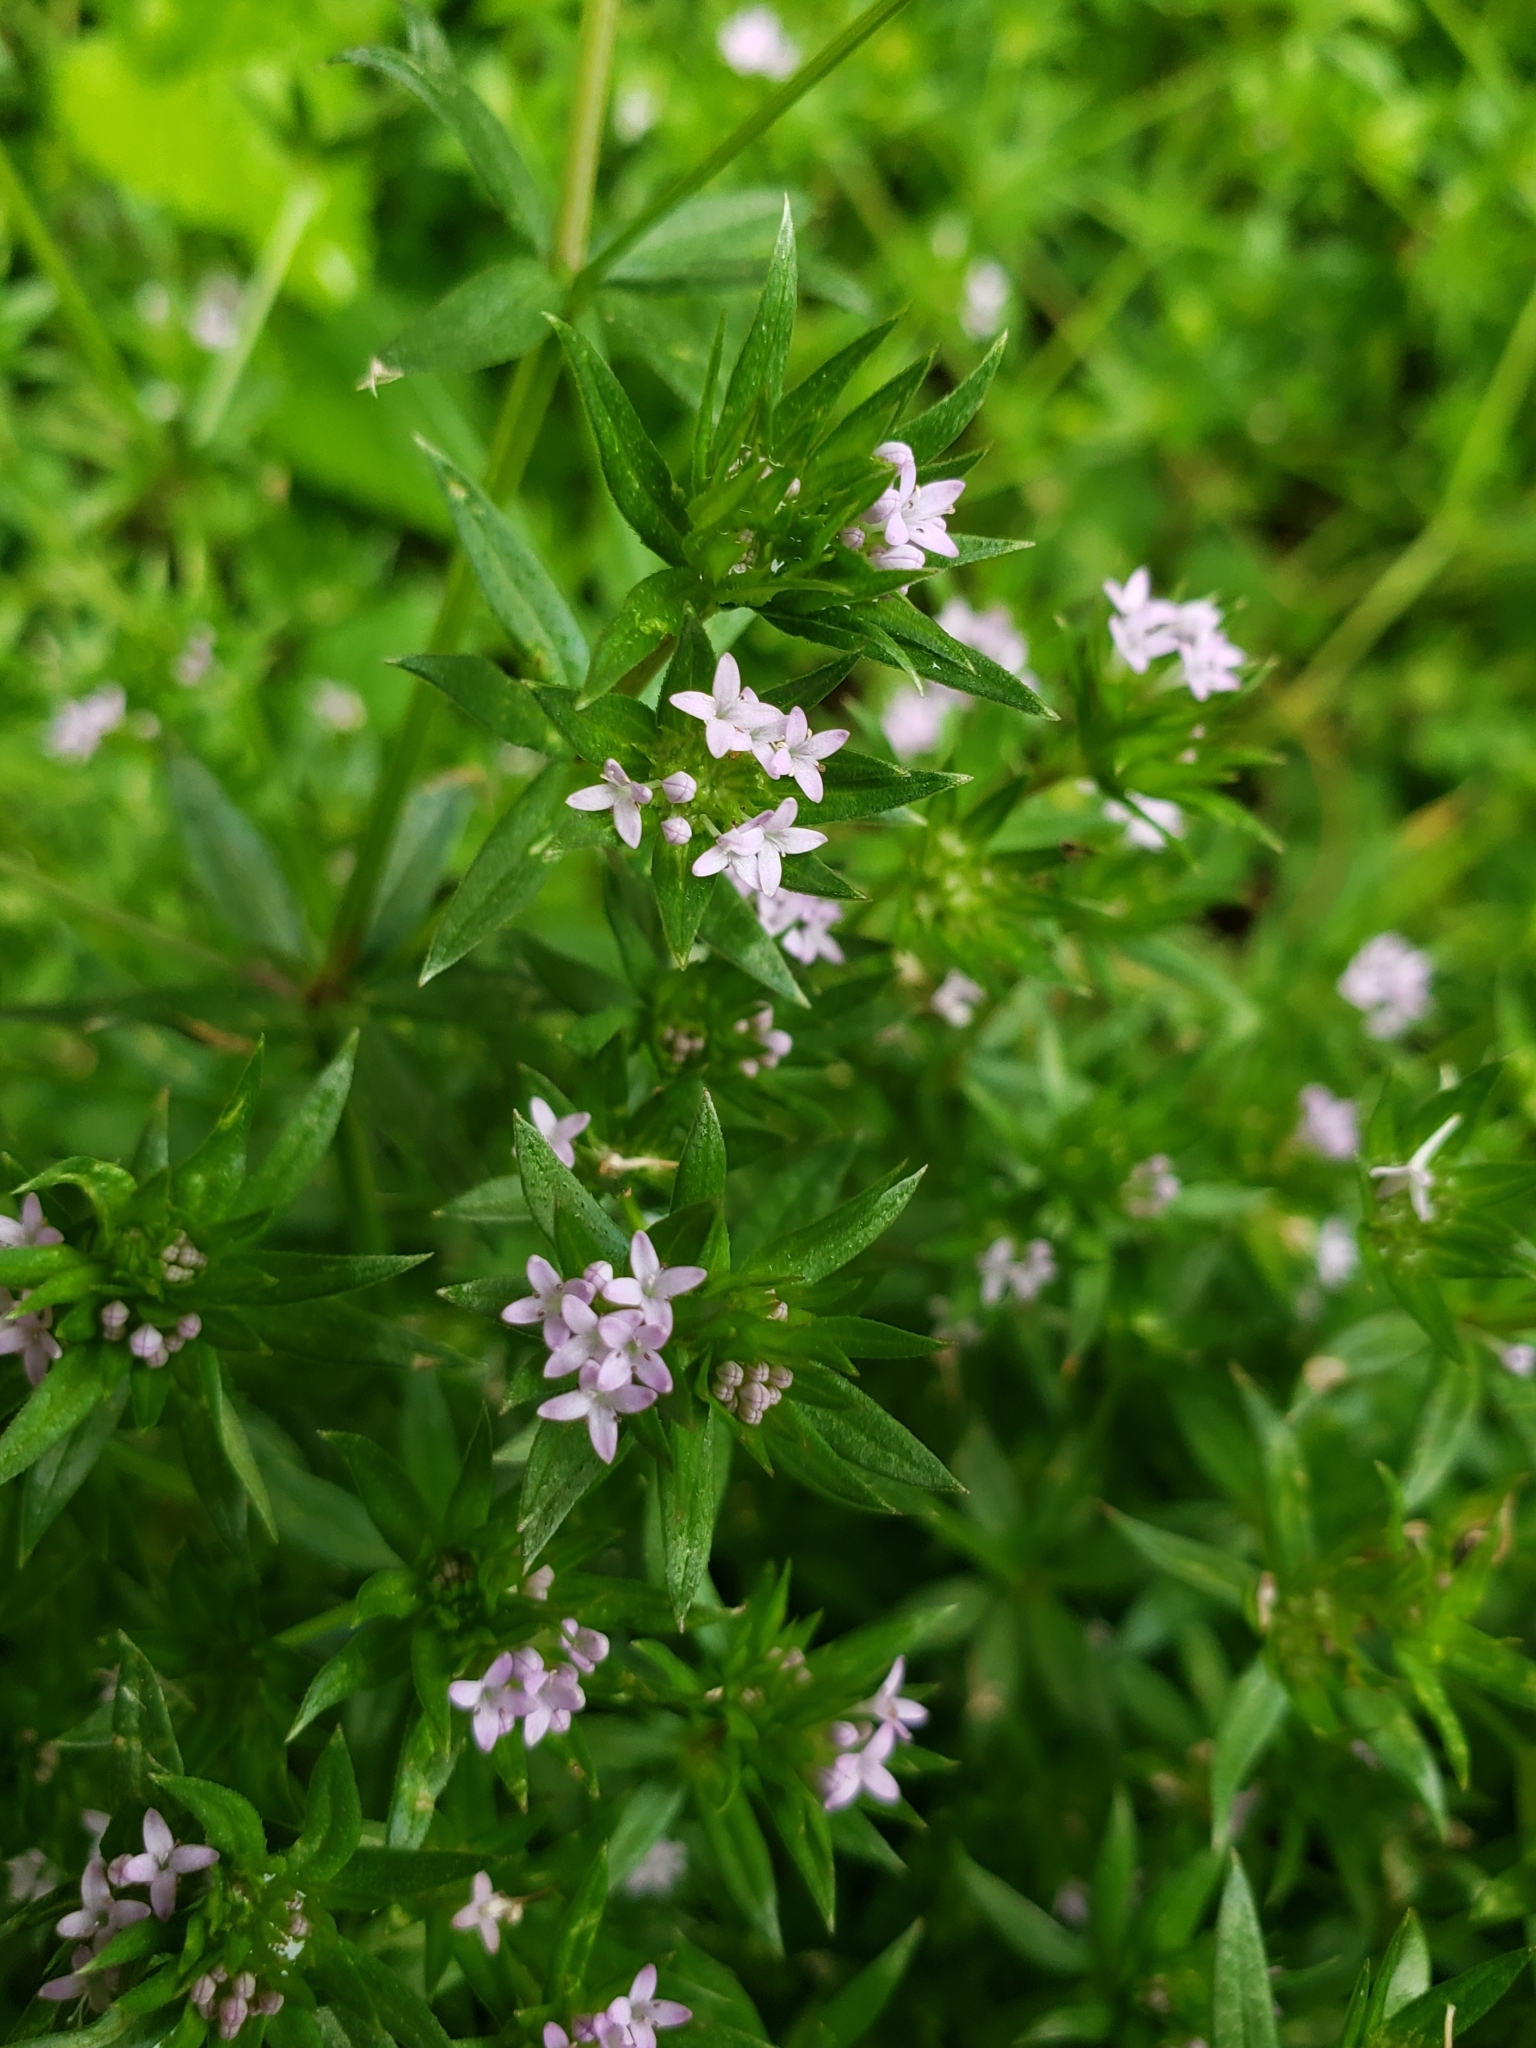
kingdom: Plantae
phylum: Tracheophyta
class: Magnoliopsida
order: Gentianales
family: Rubiaceae
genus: Sherardia
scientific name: Sherardia arvensis
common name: Field madder
